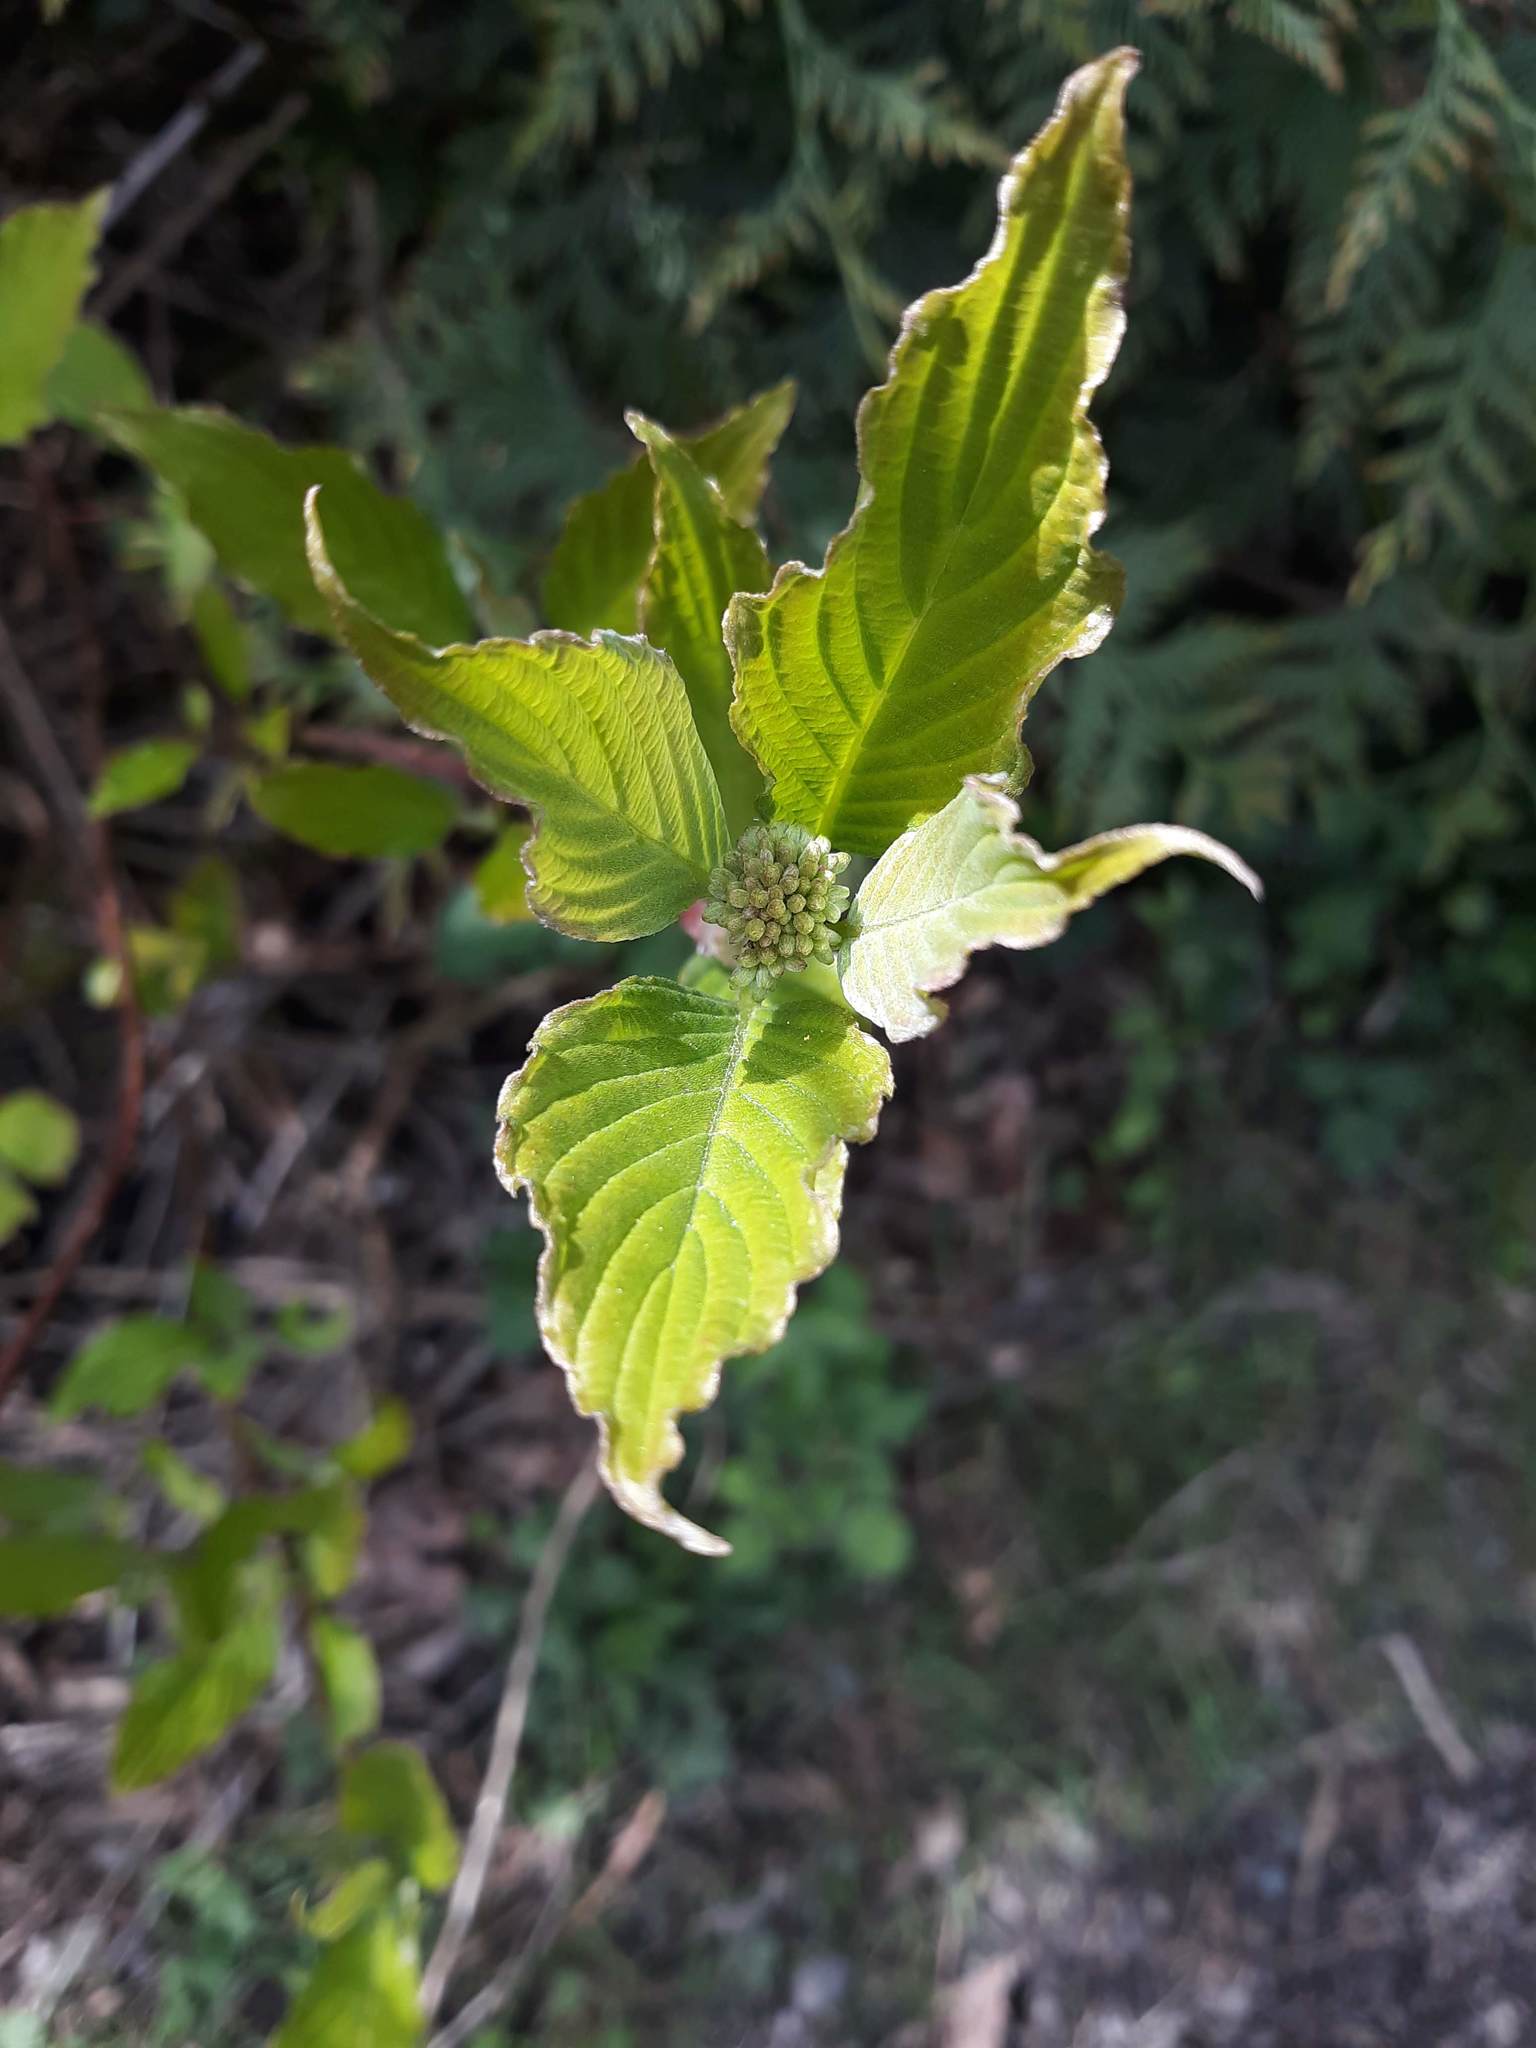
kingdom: Plantae
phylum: Tracheophyta
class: Magnoliopsida
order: Cornales
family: Cornaceae
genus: Cornus
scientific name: Cornus sericea
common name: Red-osier dogwood
